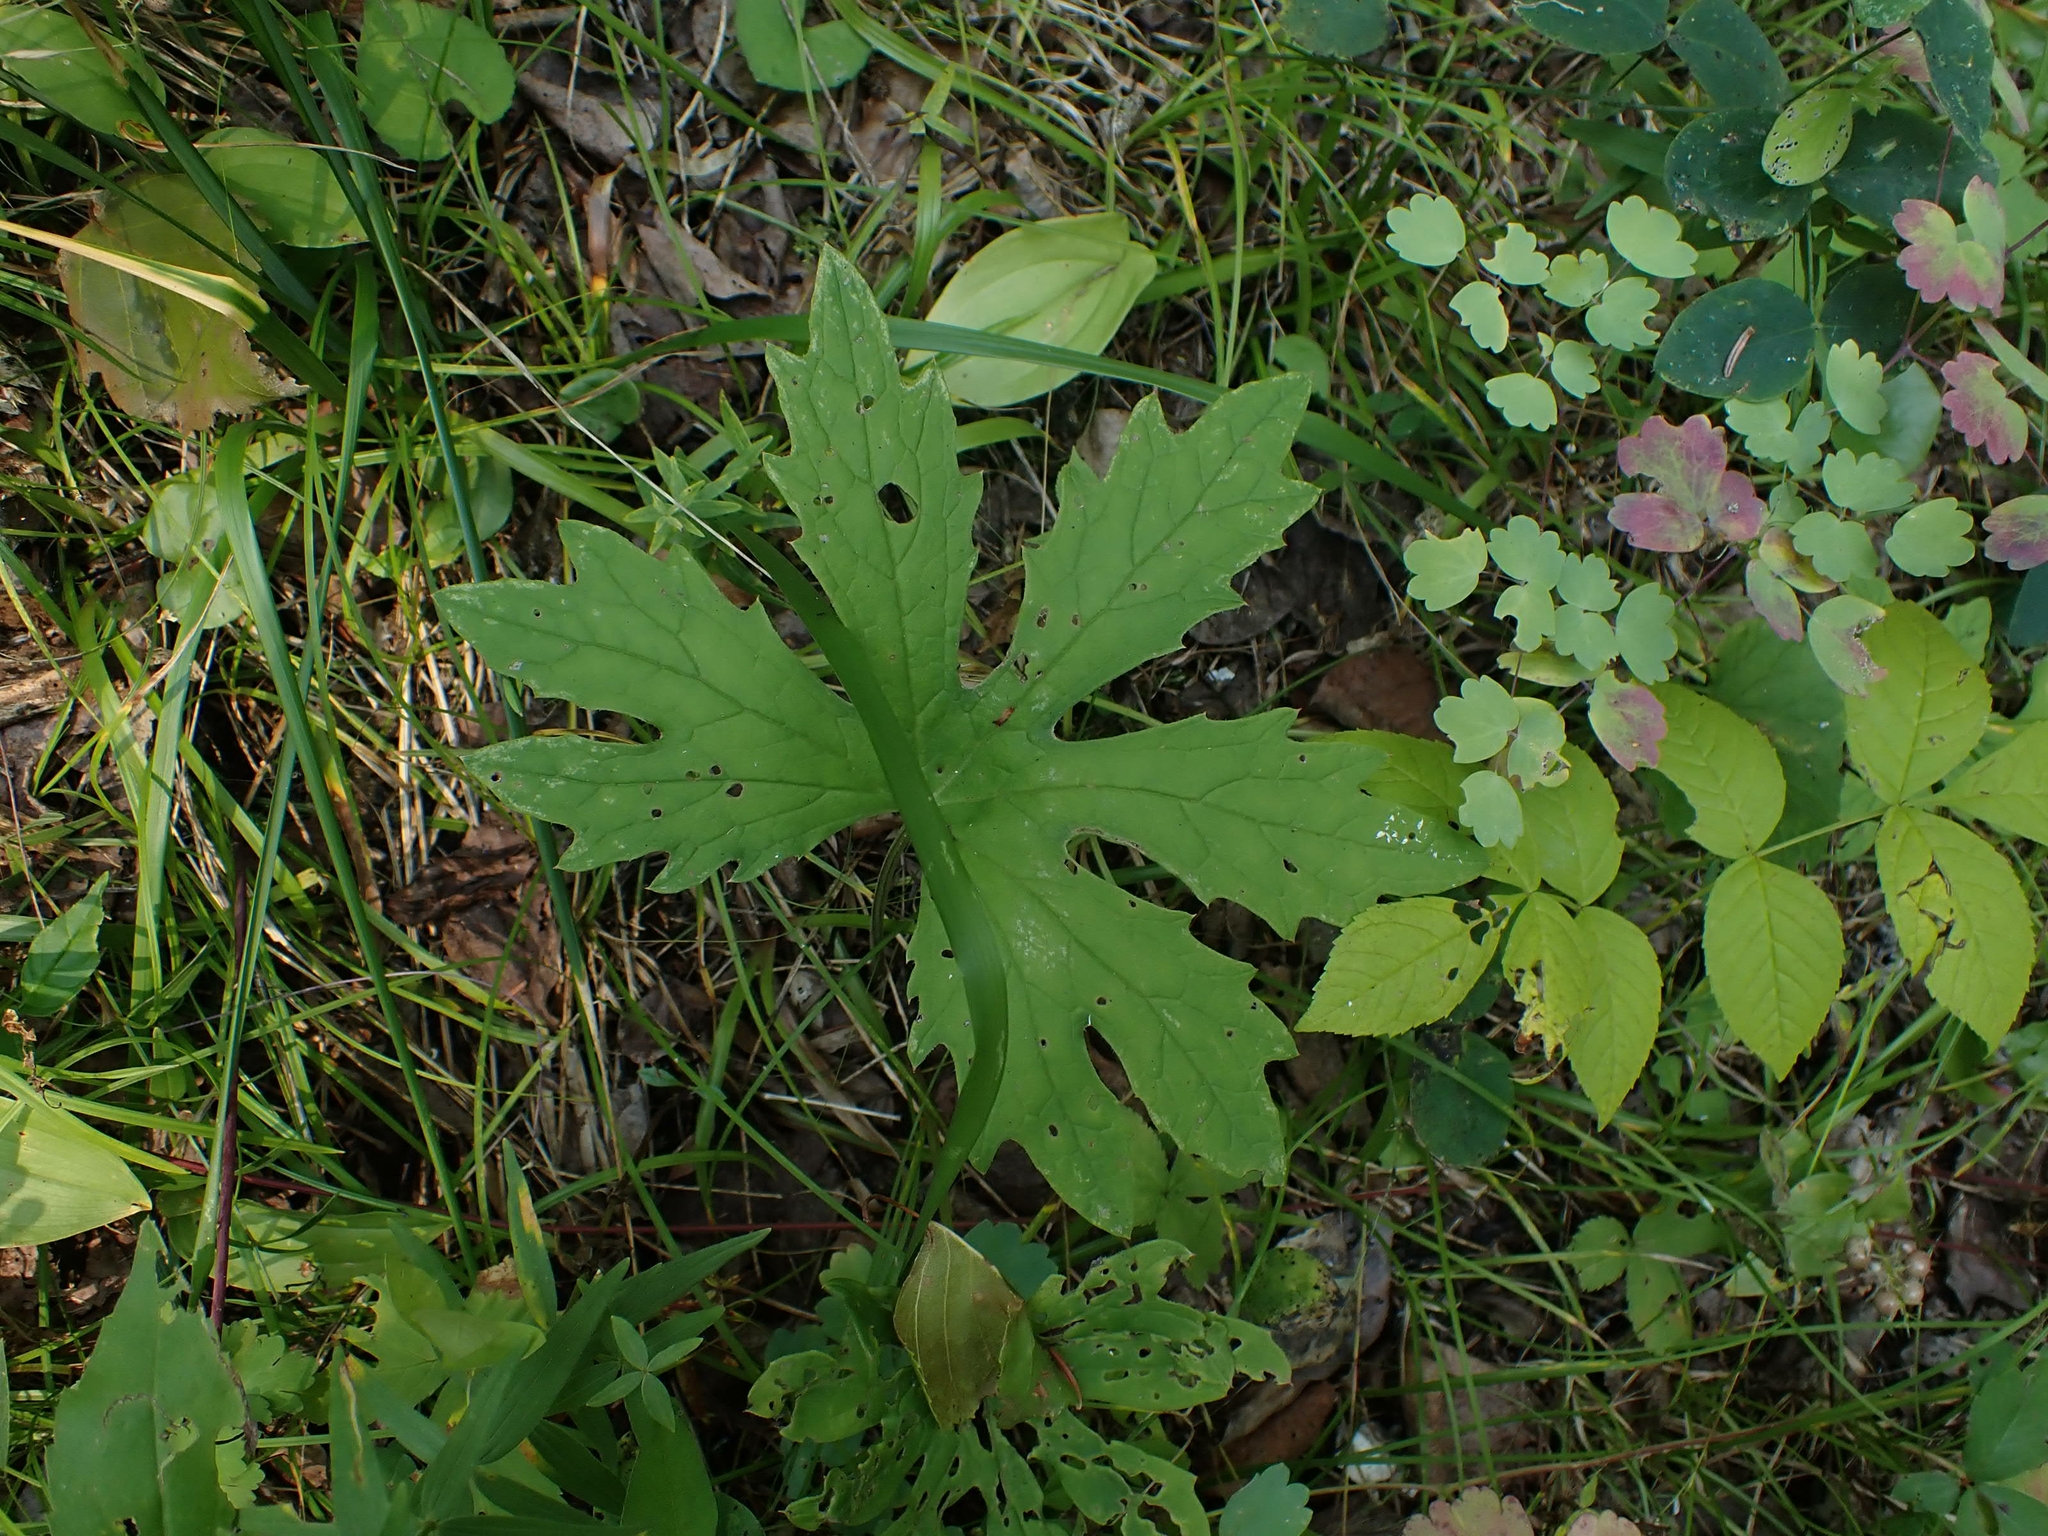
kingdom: Plantae
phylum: Tracheophyta
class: Magnoliopsida
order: Asterales
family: Asteraceae
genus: Petasites
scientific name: Petasites frigidus
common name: Arctic butterbur
